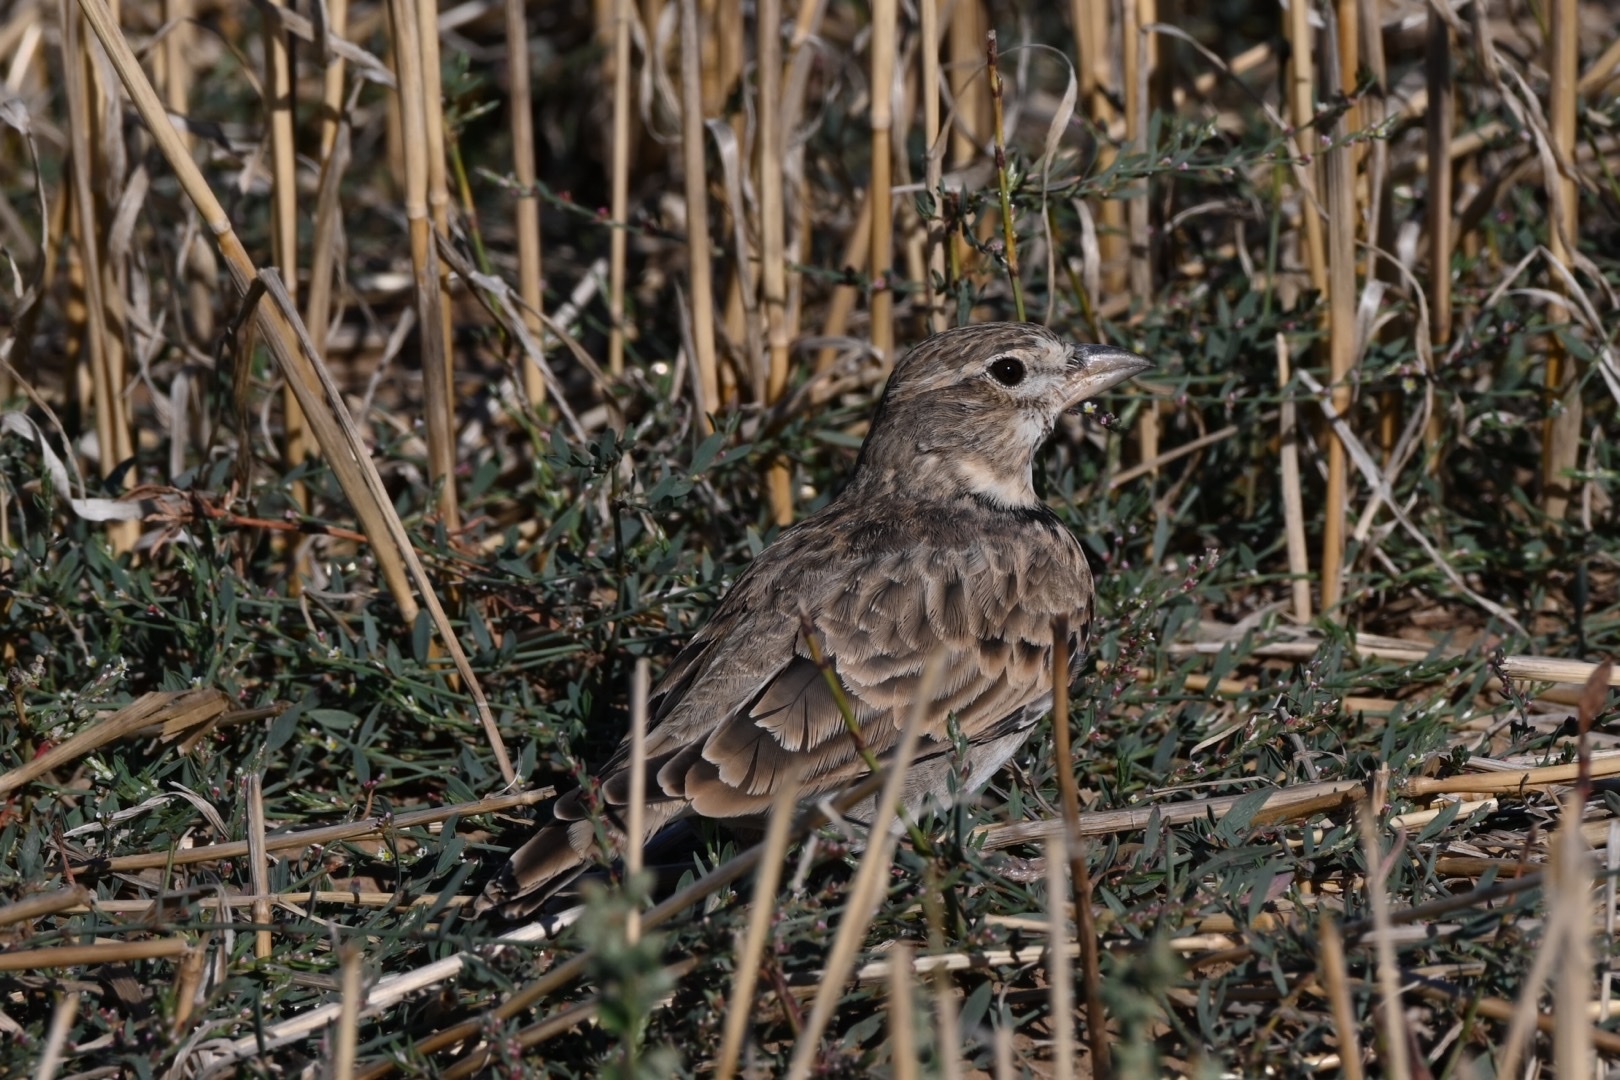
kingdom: Animalia
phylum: Chordata
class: Aves
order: Passeriformes
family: Alaudidae
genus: Melanocorypha
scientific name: Melanocorypha calandra
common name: Calandra lark
